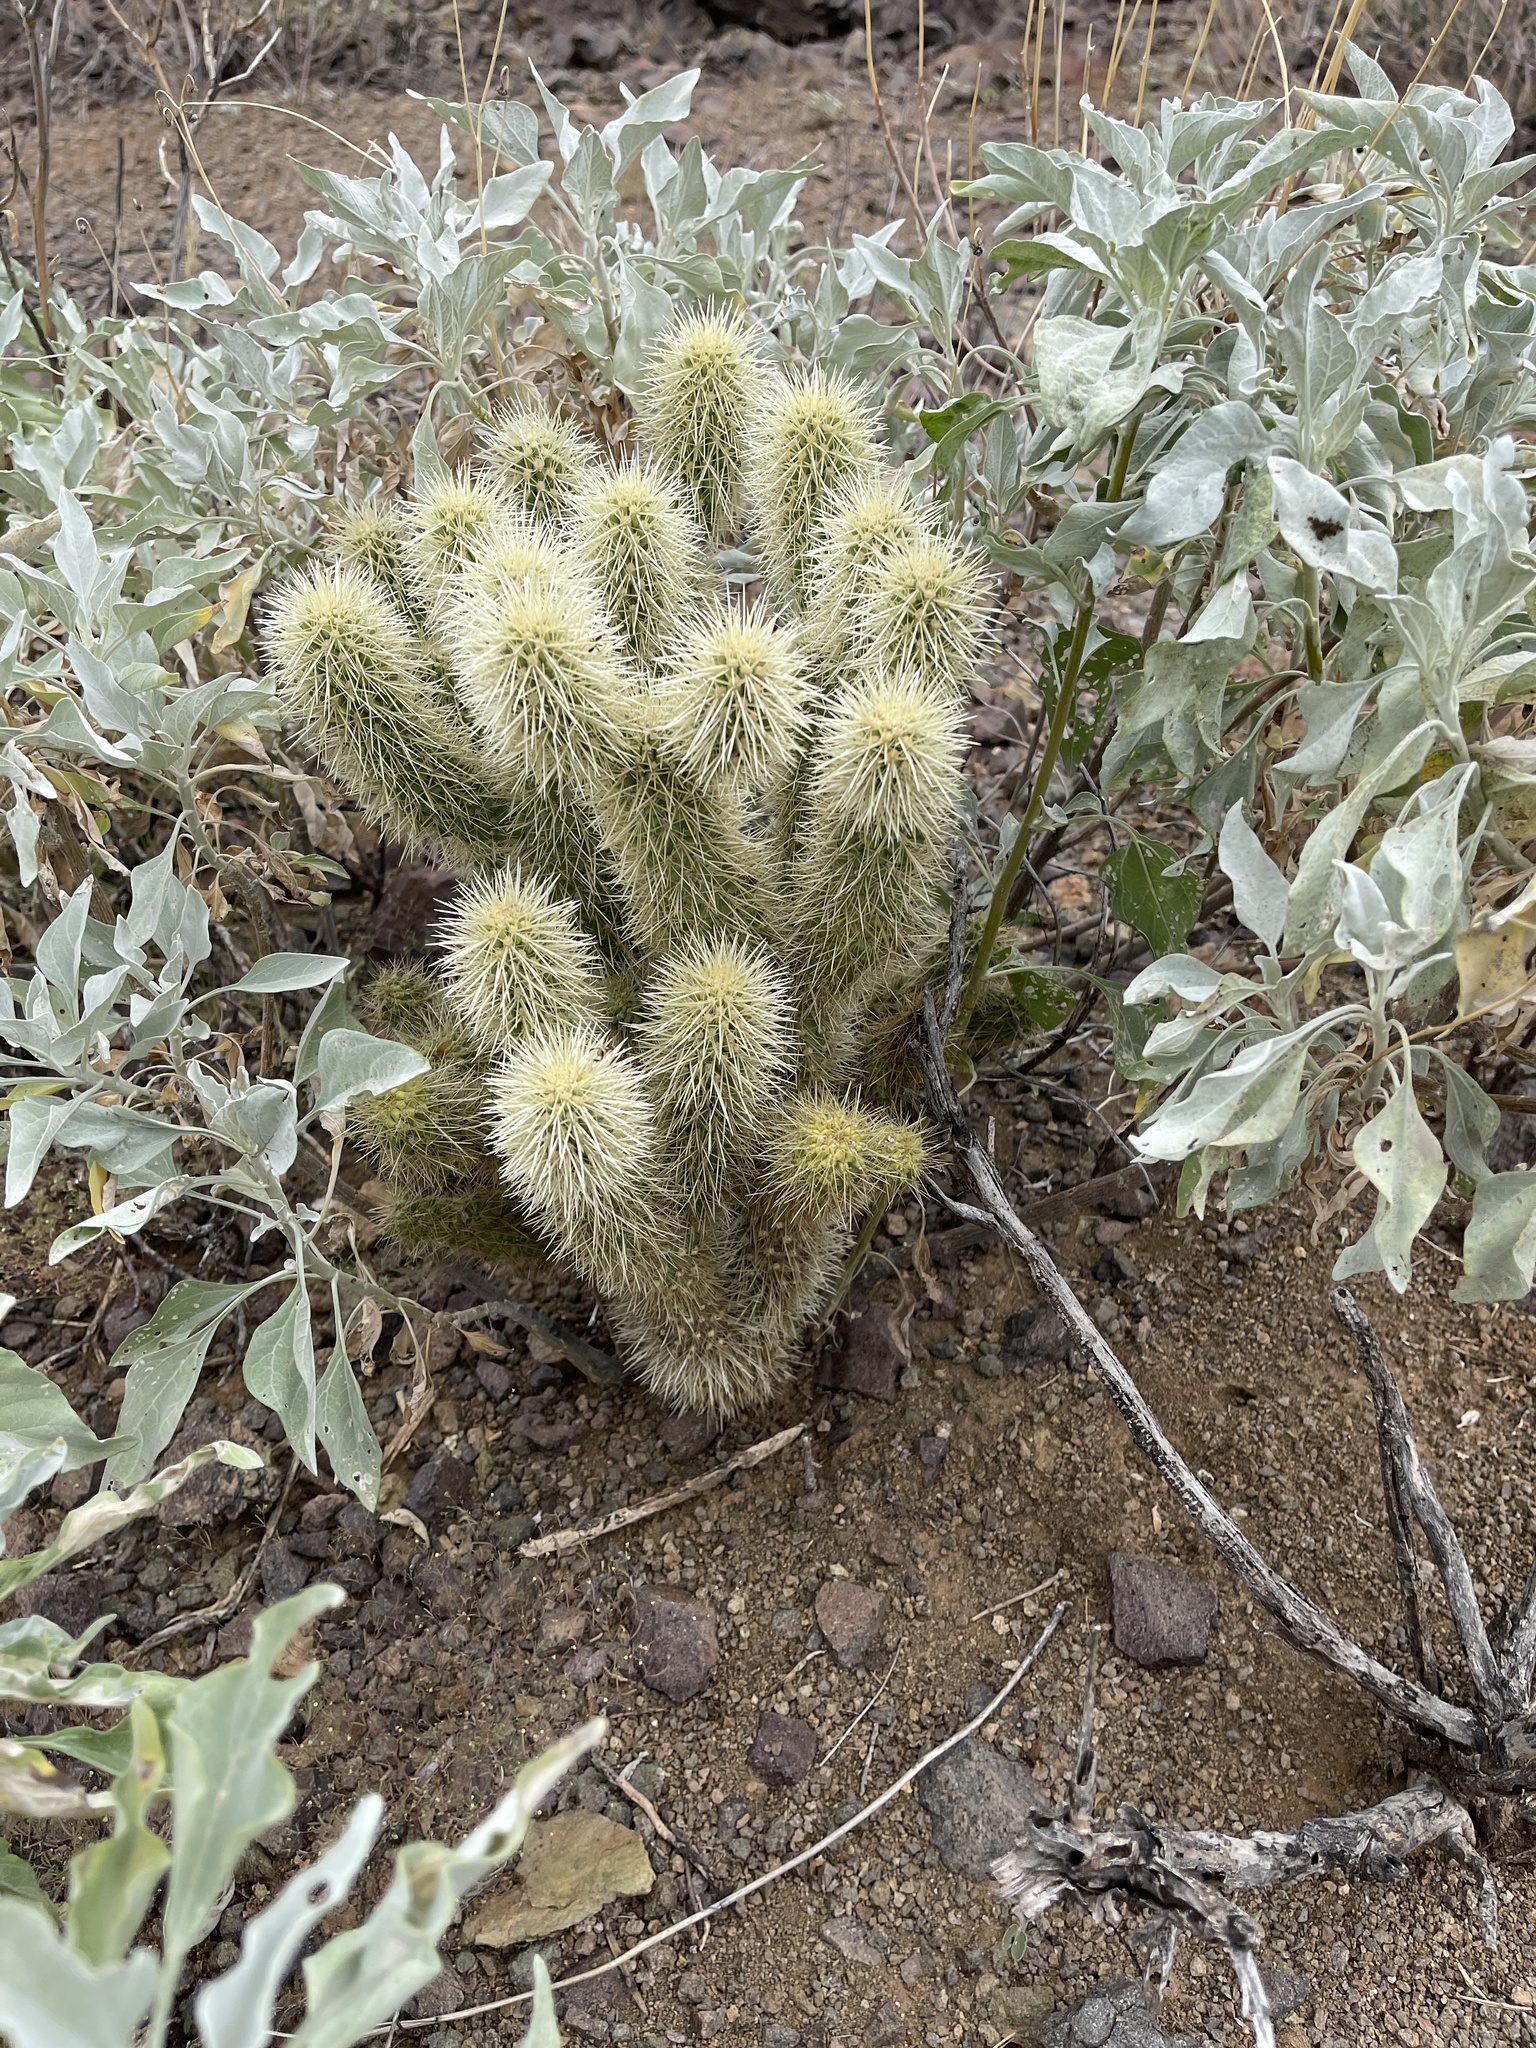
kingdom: Plantae
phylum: Tracheophyta
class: Magnoliopsida
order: Caryophyllales
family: Cactaceae
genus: Cylindropuntia
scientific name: Cylindropuntia fosbergii
